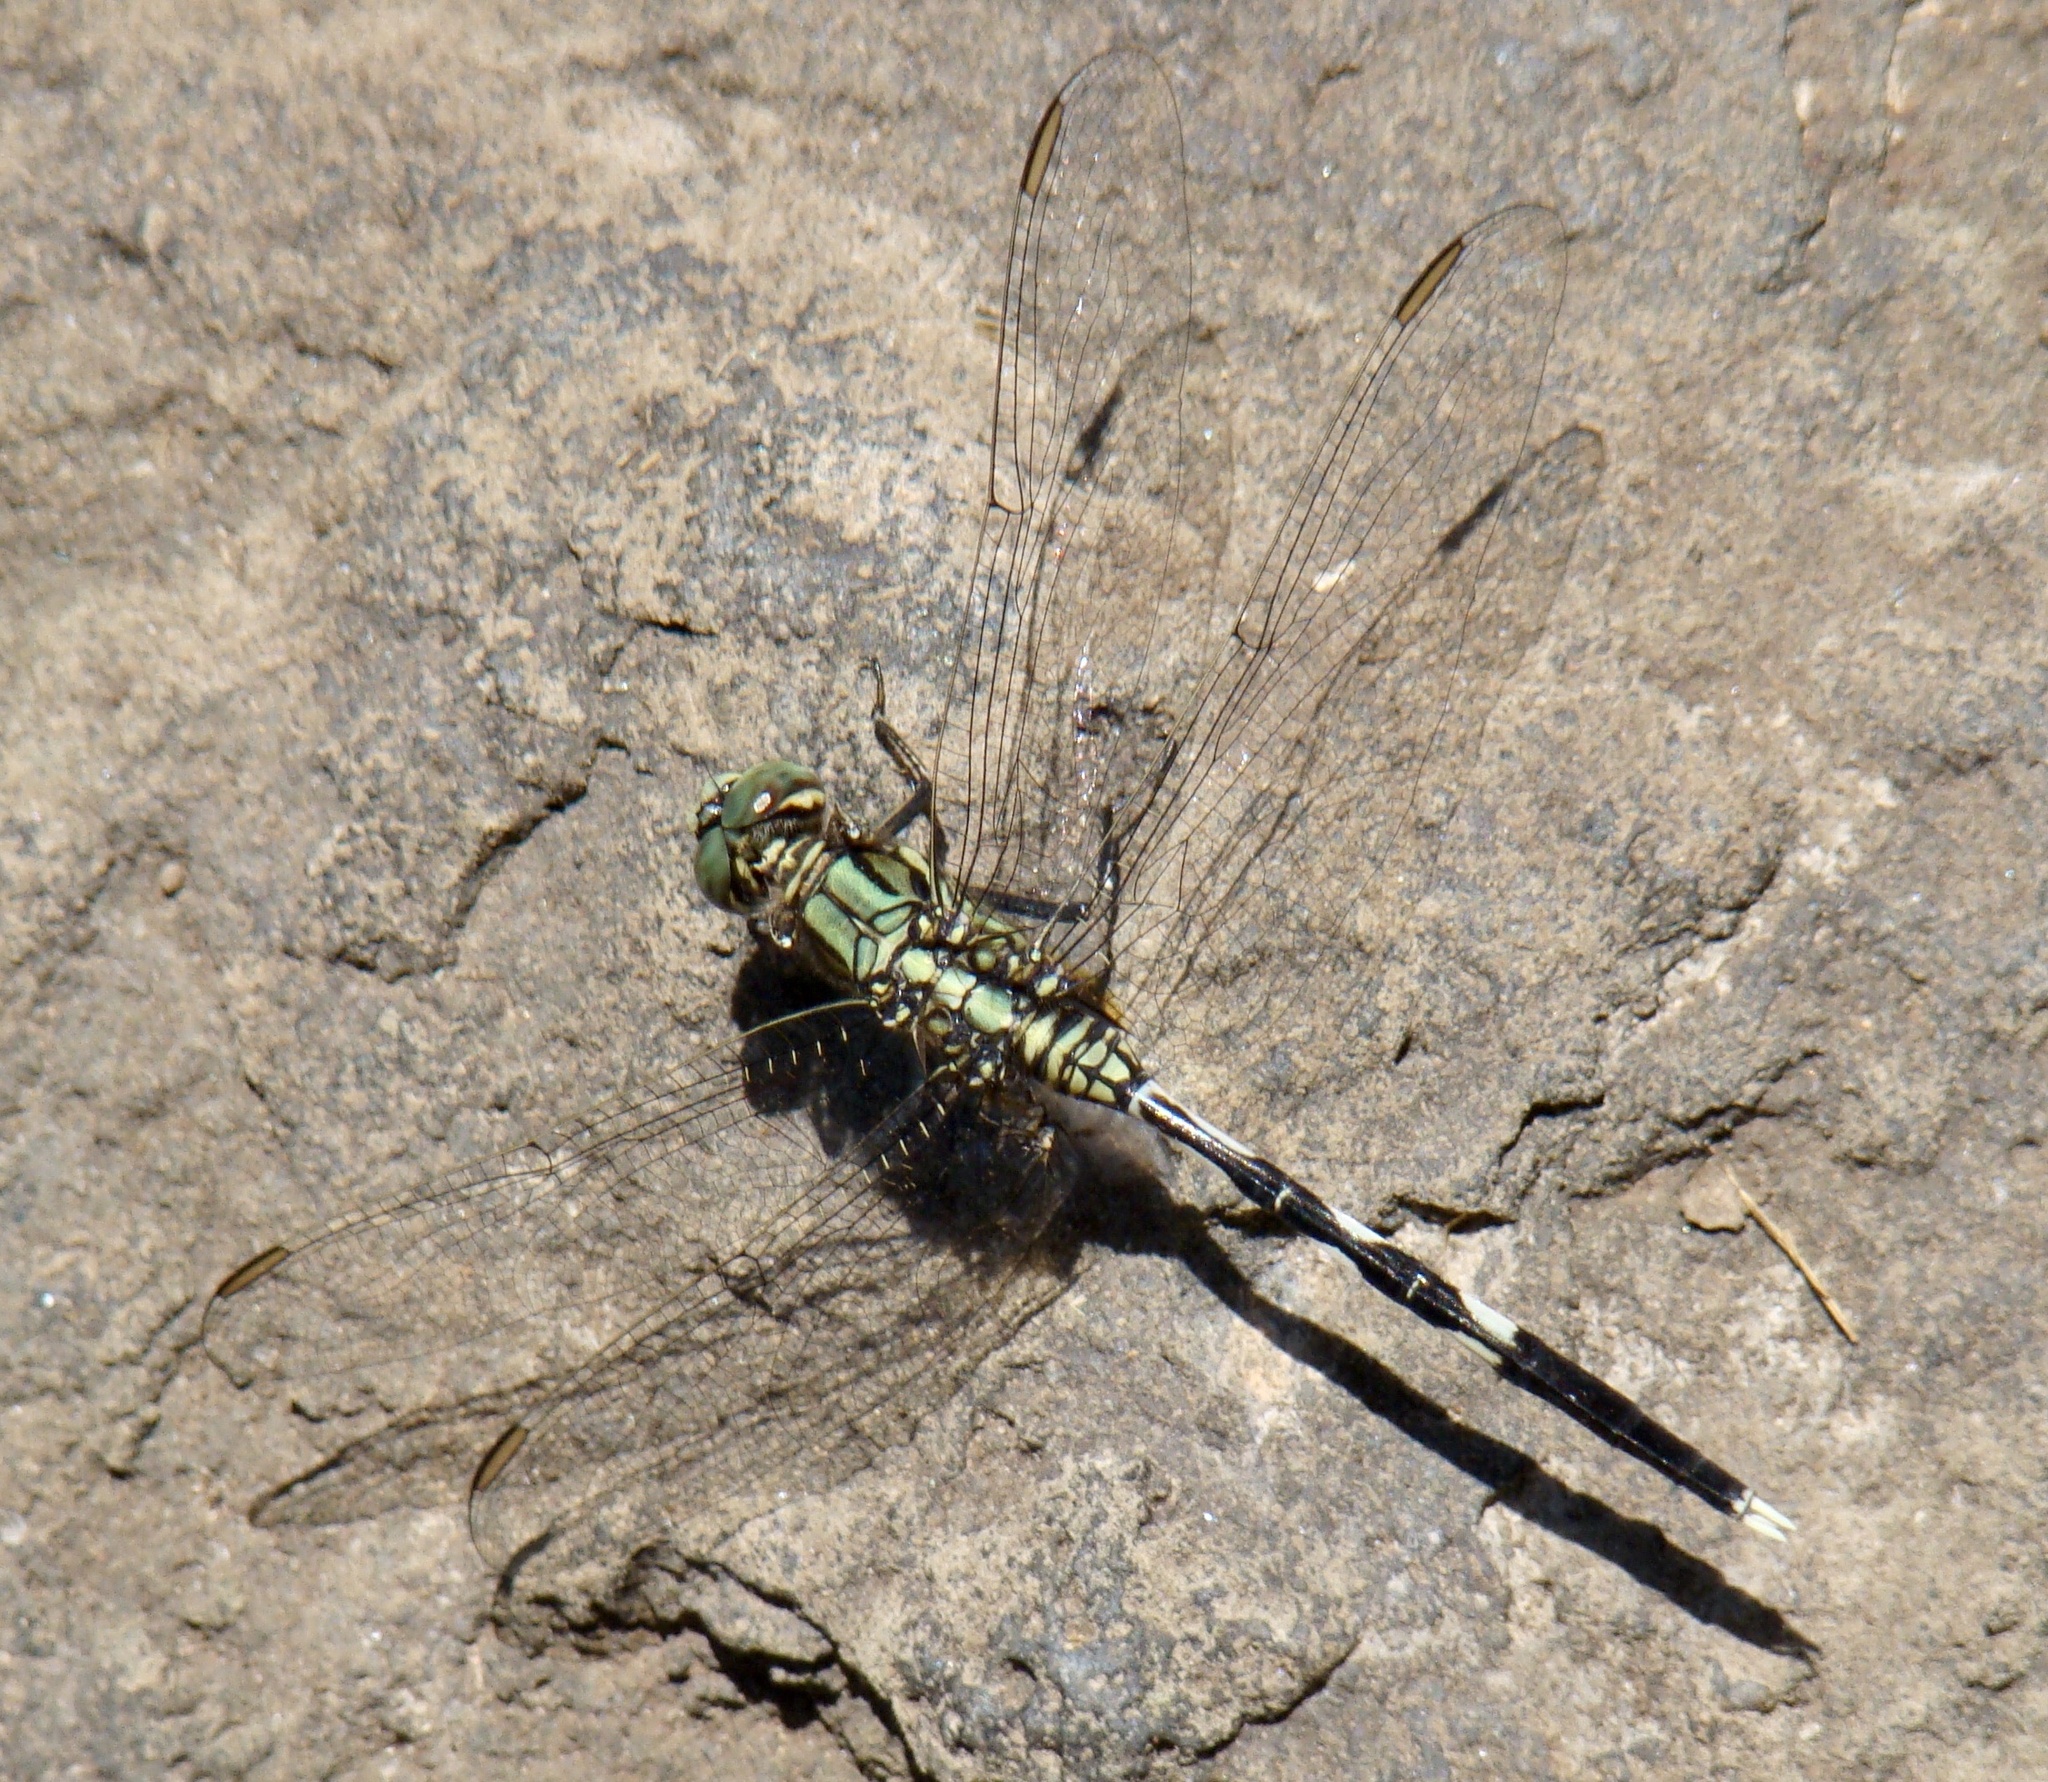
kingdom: Animalia
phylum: Arthropoda
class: Insecta
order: Odonata
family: Libellulidae
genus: Orthetrum
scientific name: Orthetrum sabina
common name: Slender skimmer
